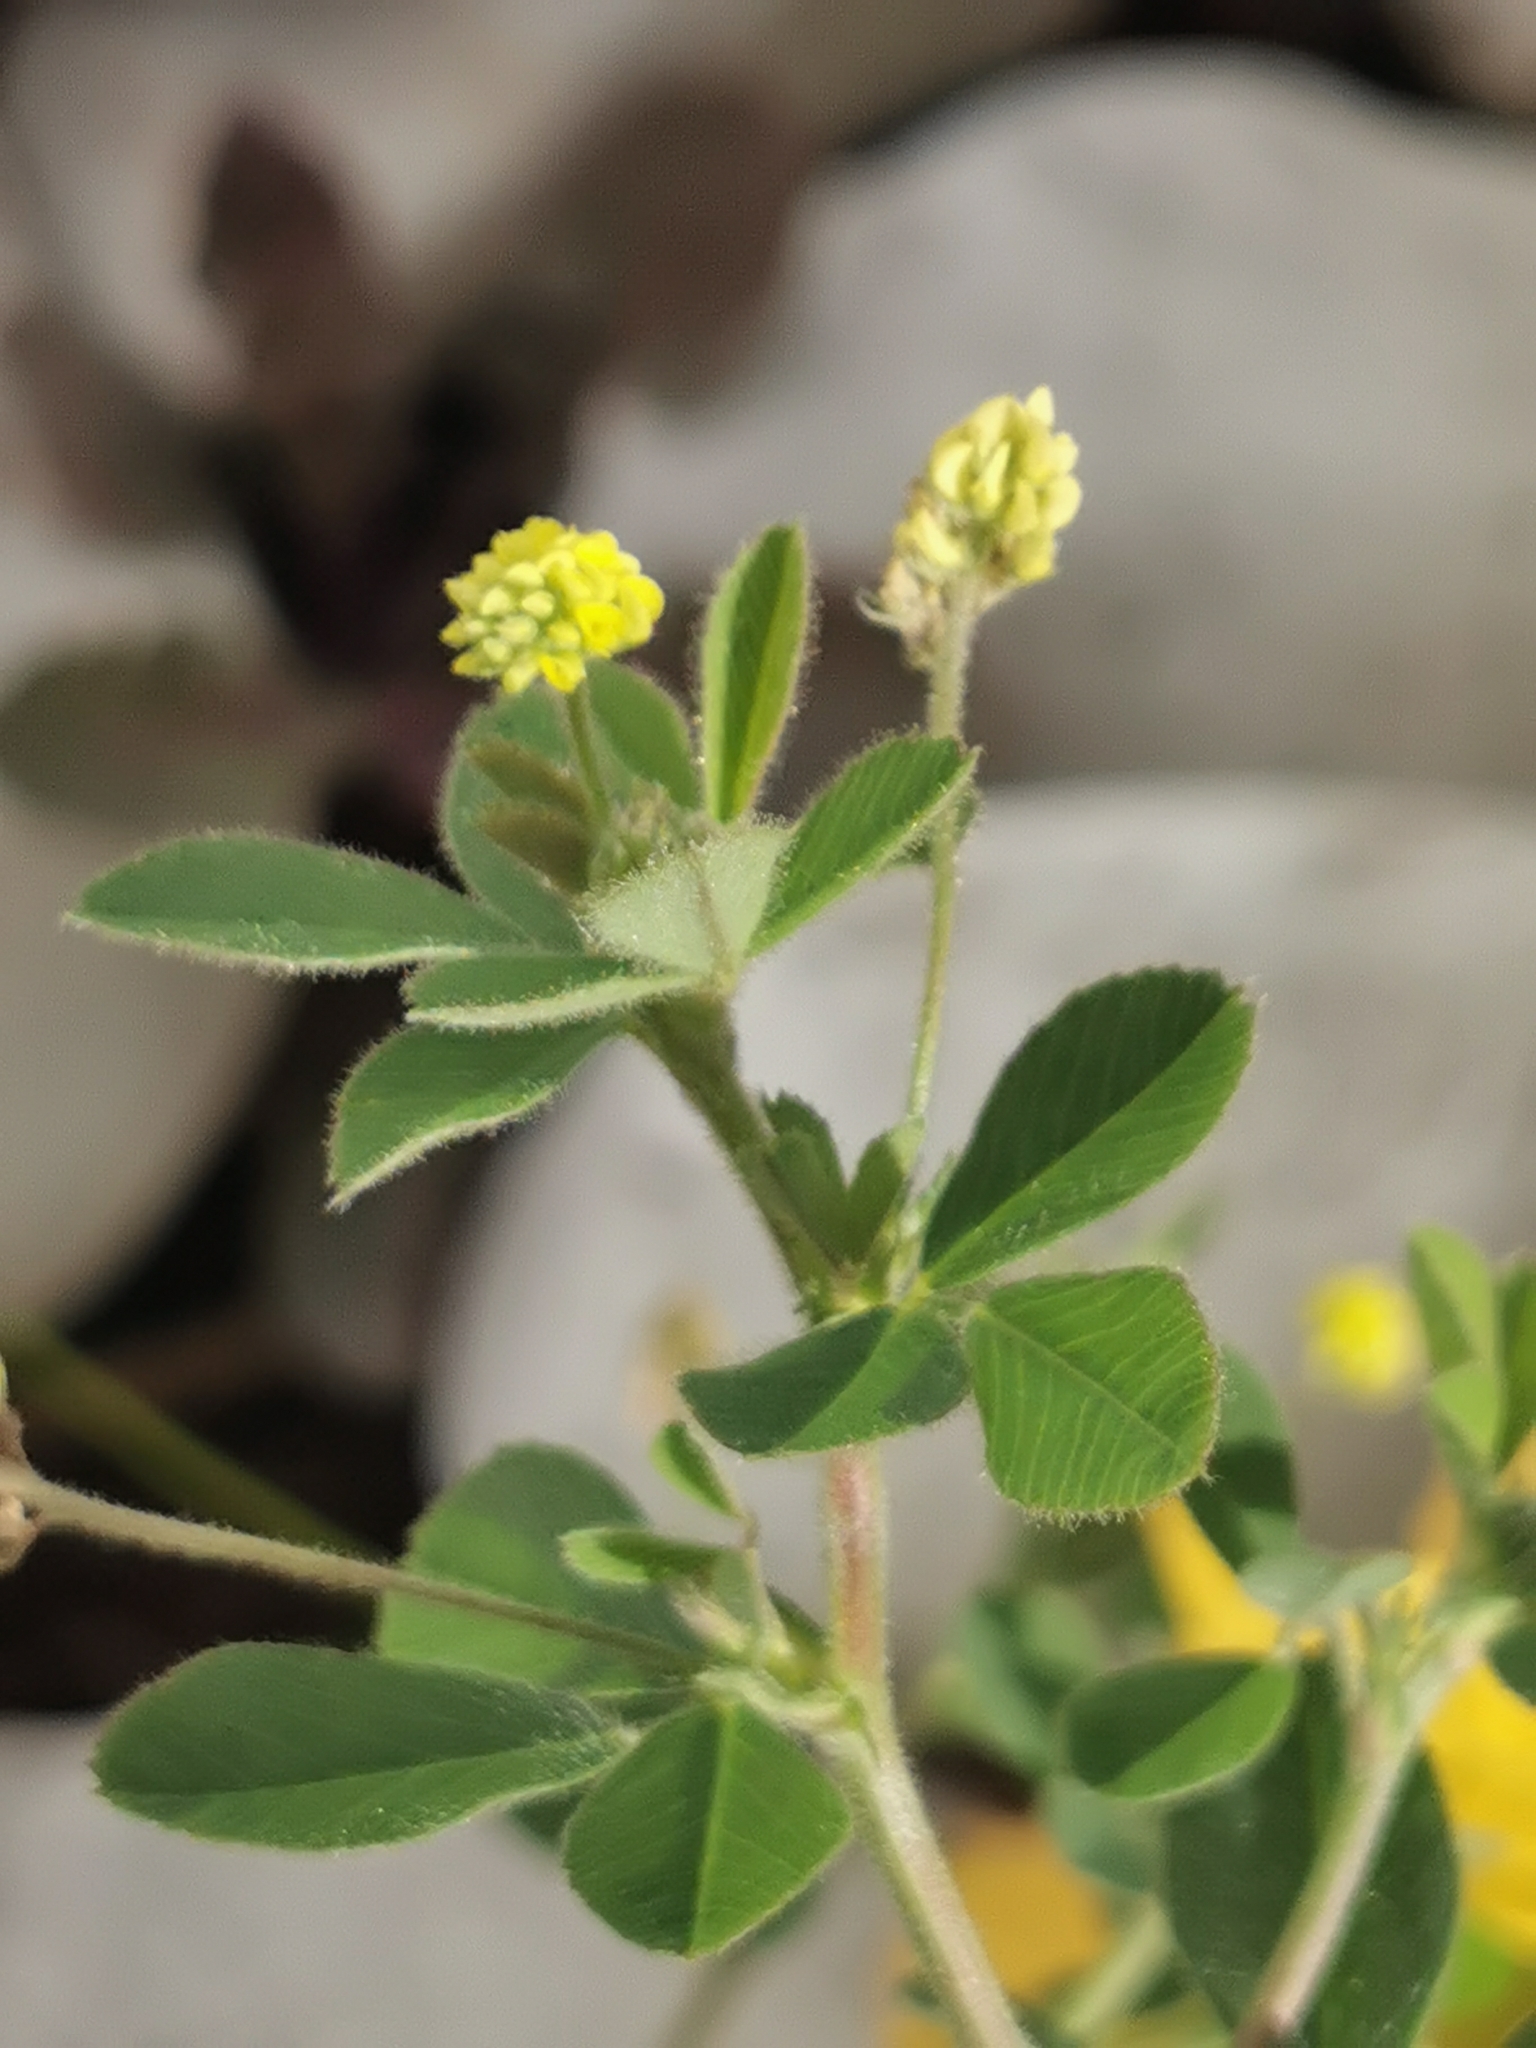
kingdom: Plantae
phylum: Tracheophyta
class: Magnoliopsida
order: Fabales
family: Fabaceae
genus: Medicago
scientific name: Medicago lupulina
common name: Black medick
